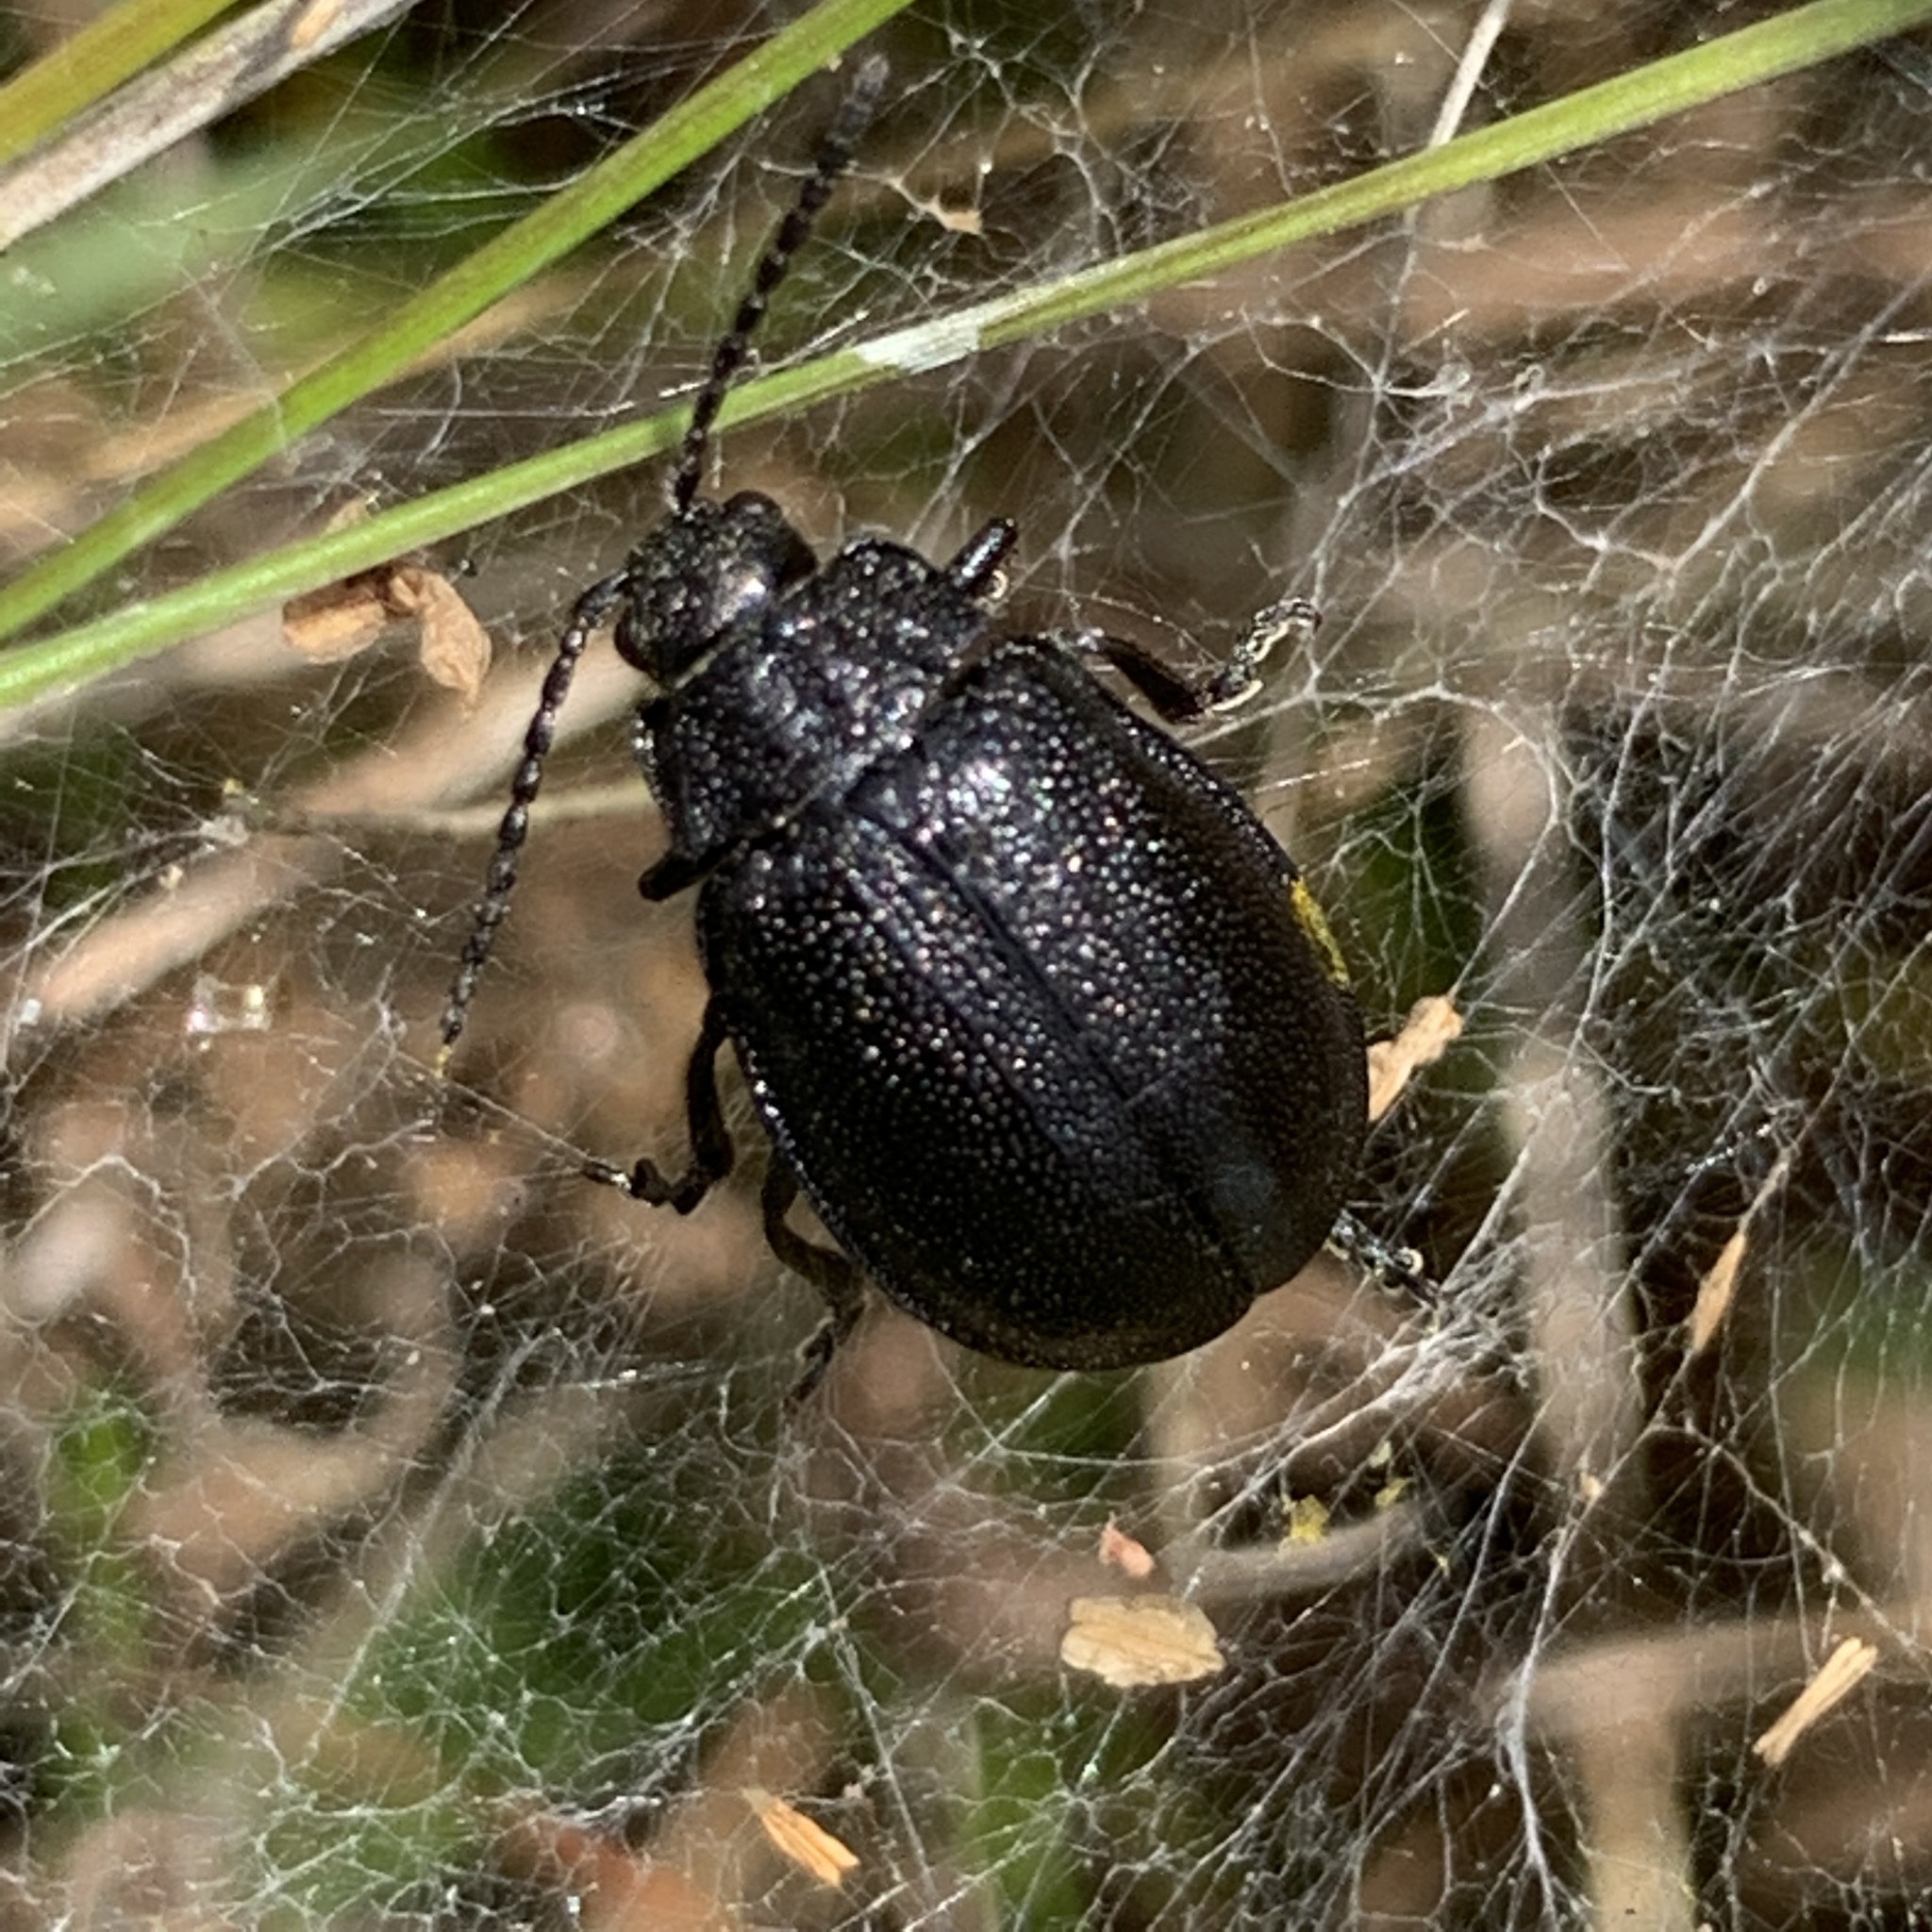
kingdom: Animalia
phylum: Arthropoda
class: Insecta
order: Coleoptera
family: Chrysomelidae
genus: Galeruca
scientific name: Galeruca tanaceti
